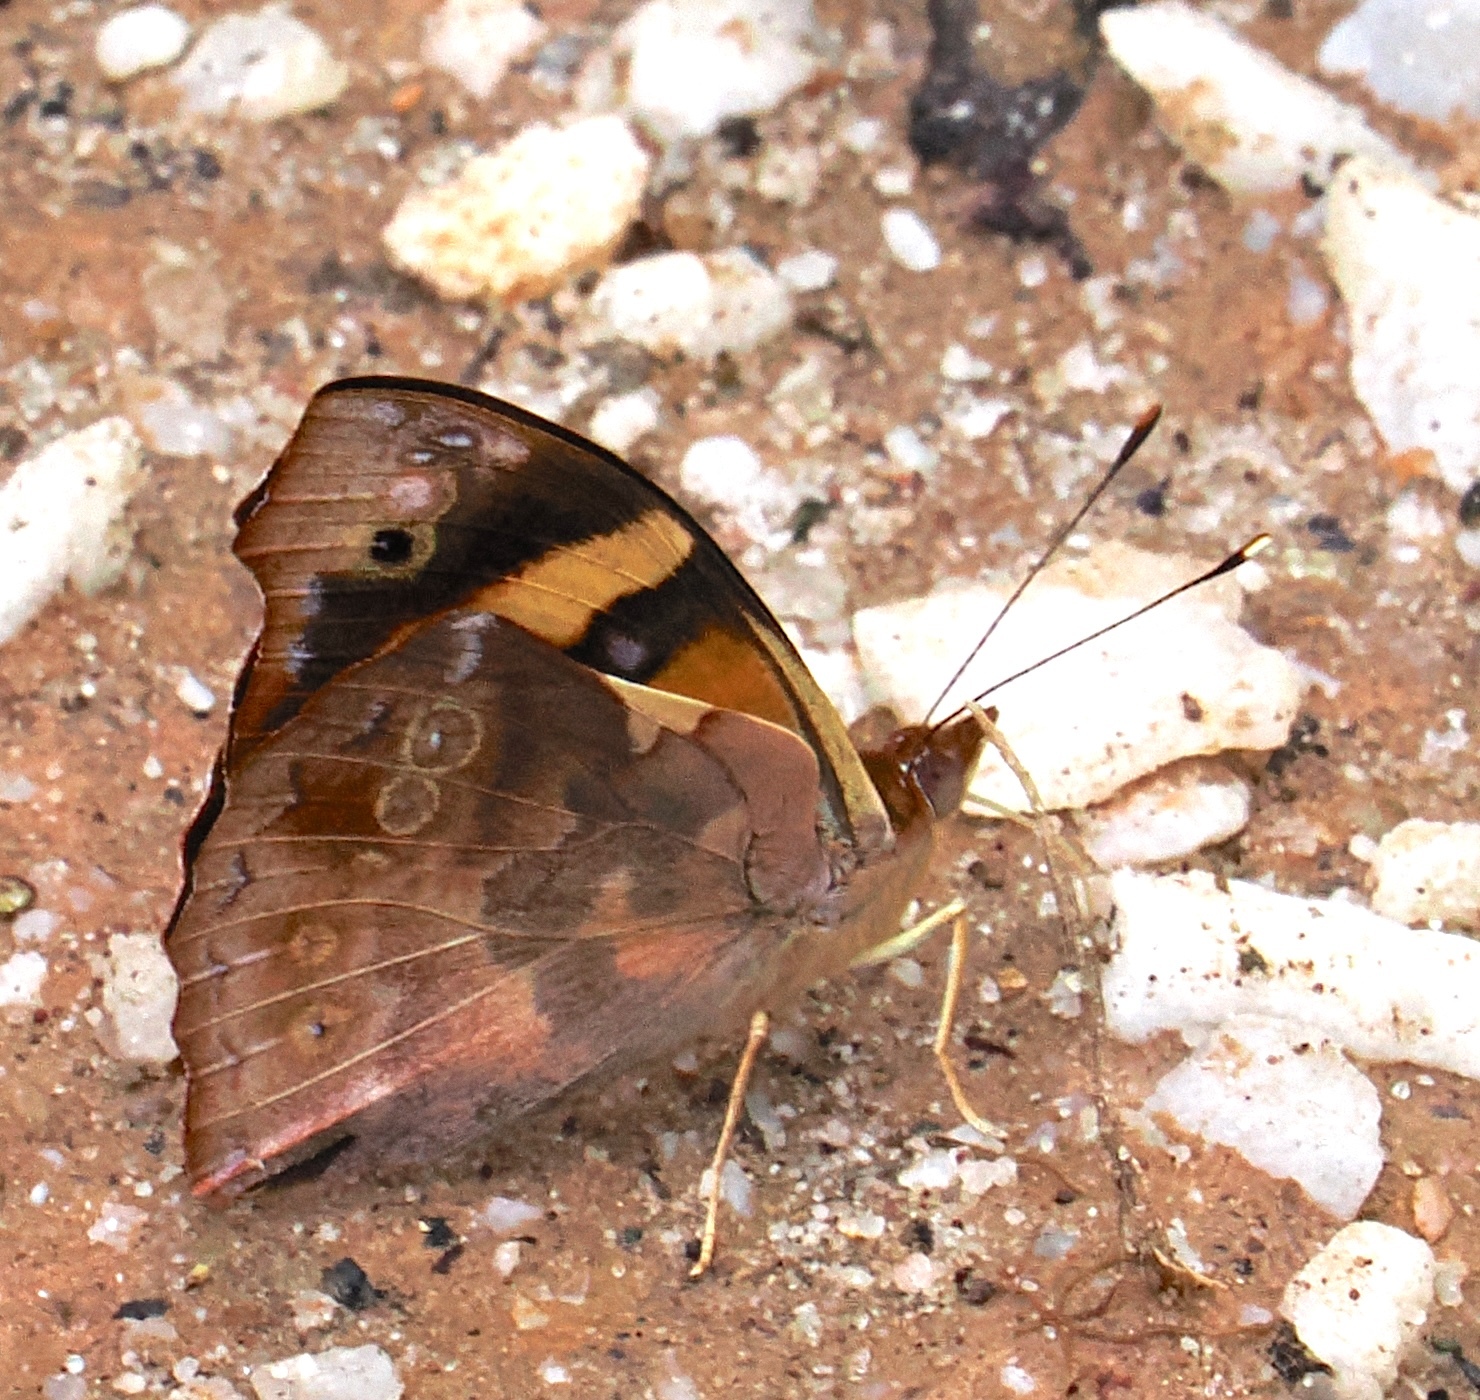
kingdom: Animalia
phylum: Arthropoda
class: Insecta
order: Lepidoptera
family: Nymphalidae
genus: Epiphile
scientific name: Epiphile orea
